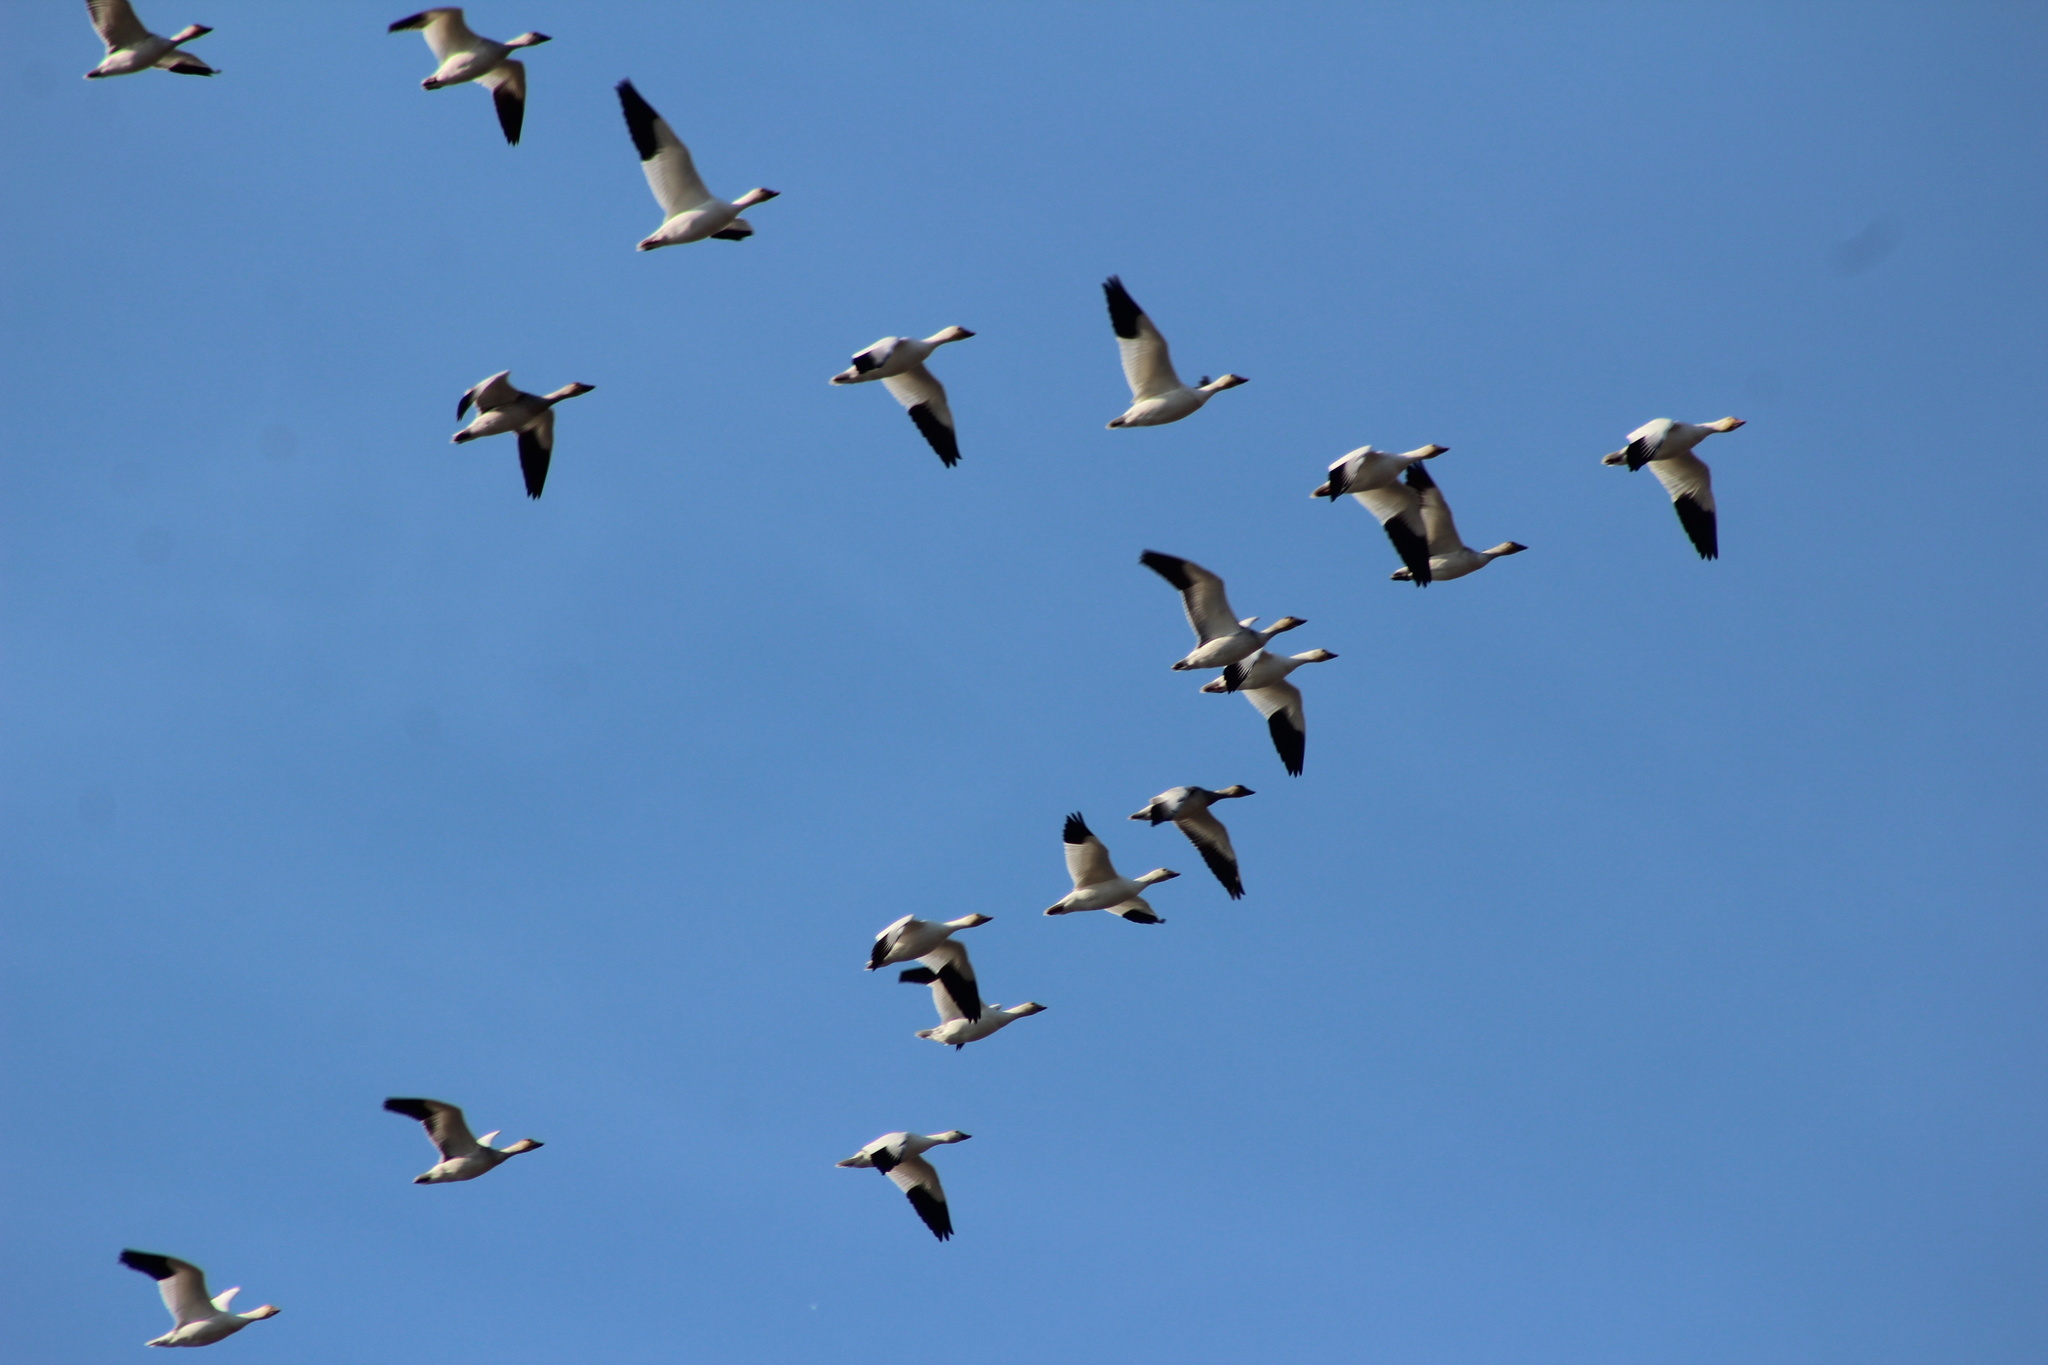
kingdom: Animalia
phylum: Chordata
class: Aves
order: Anseriformes
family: Anatidae
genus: Anser
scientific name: Anser caerulescens
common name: Snow goose
